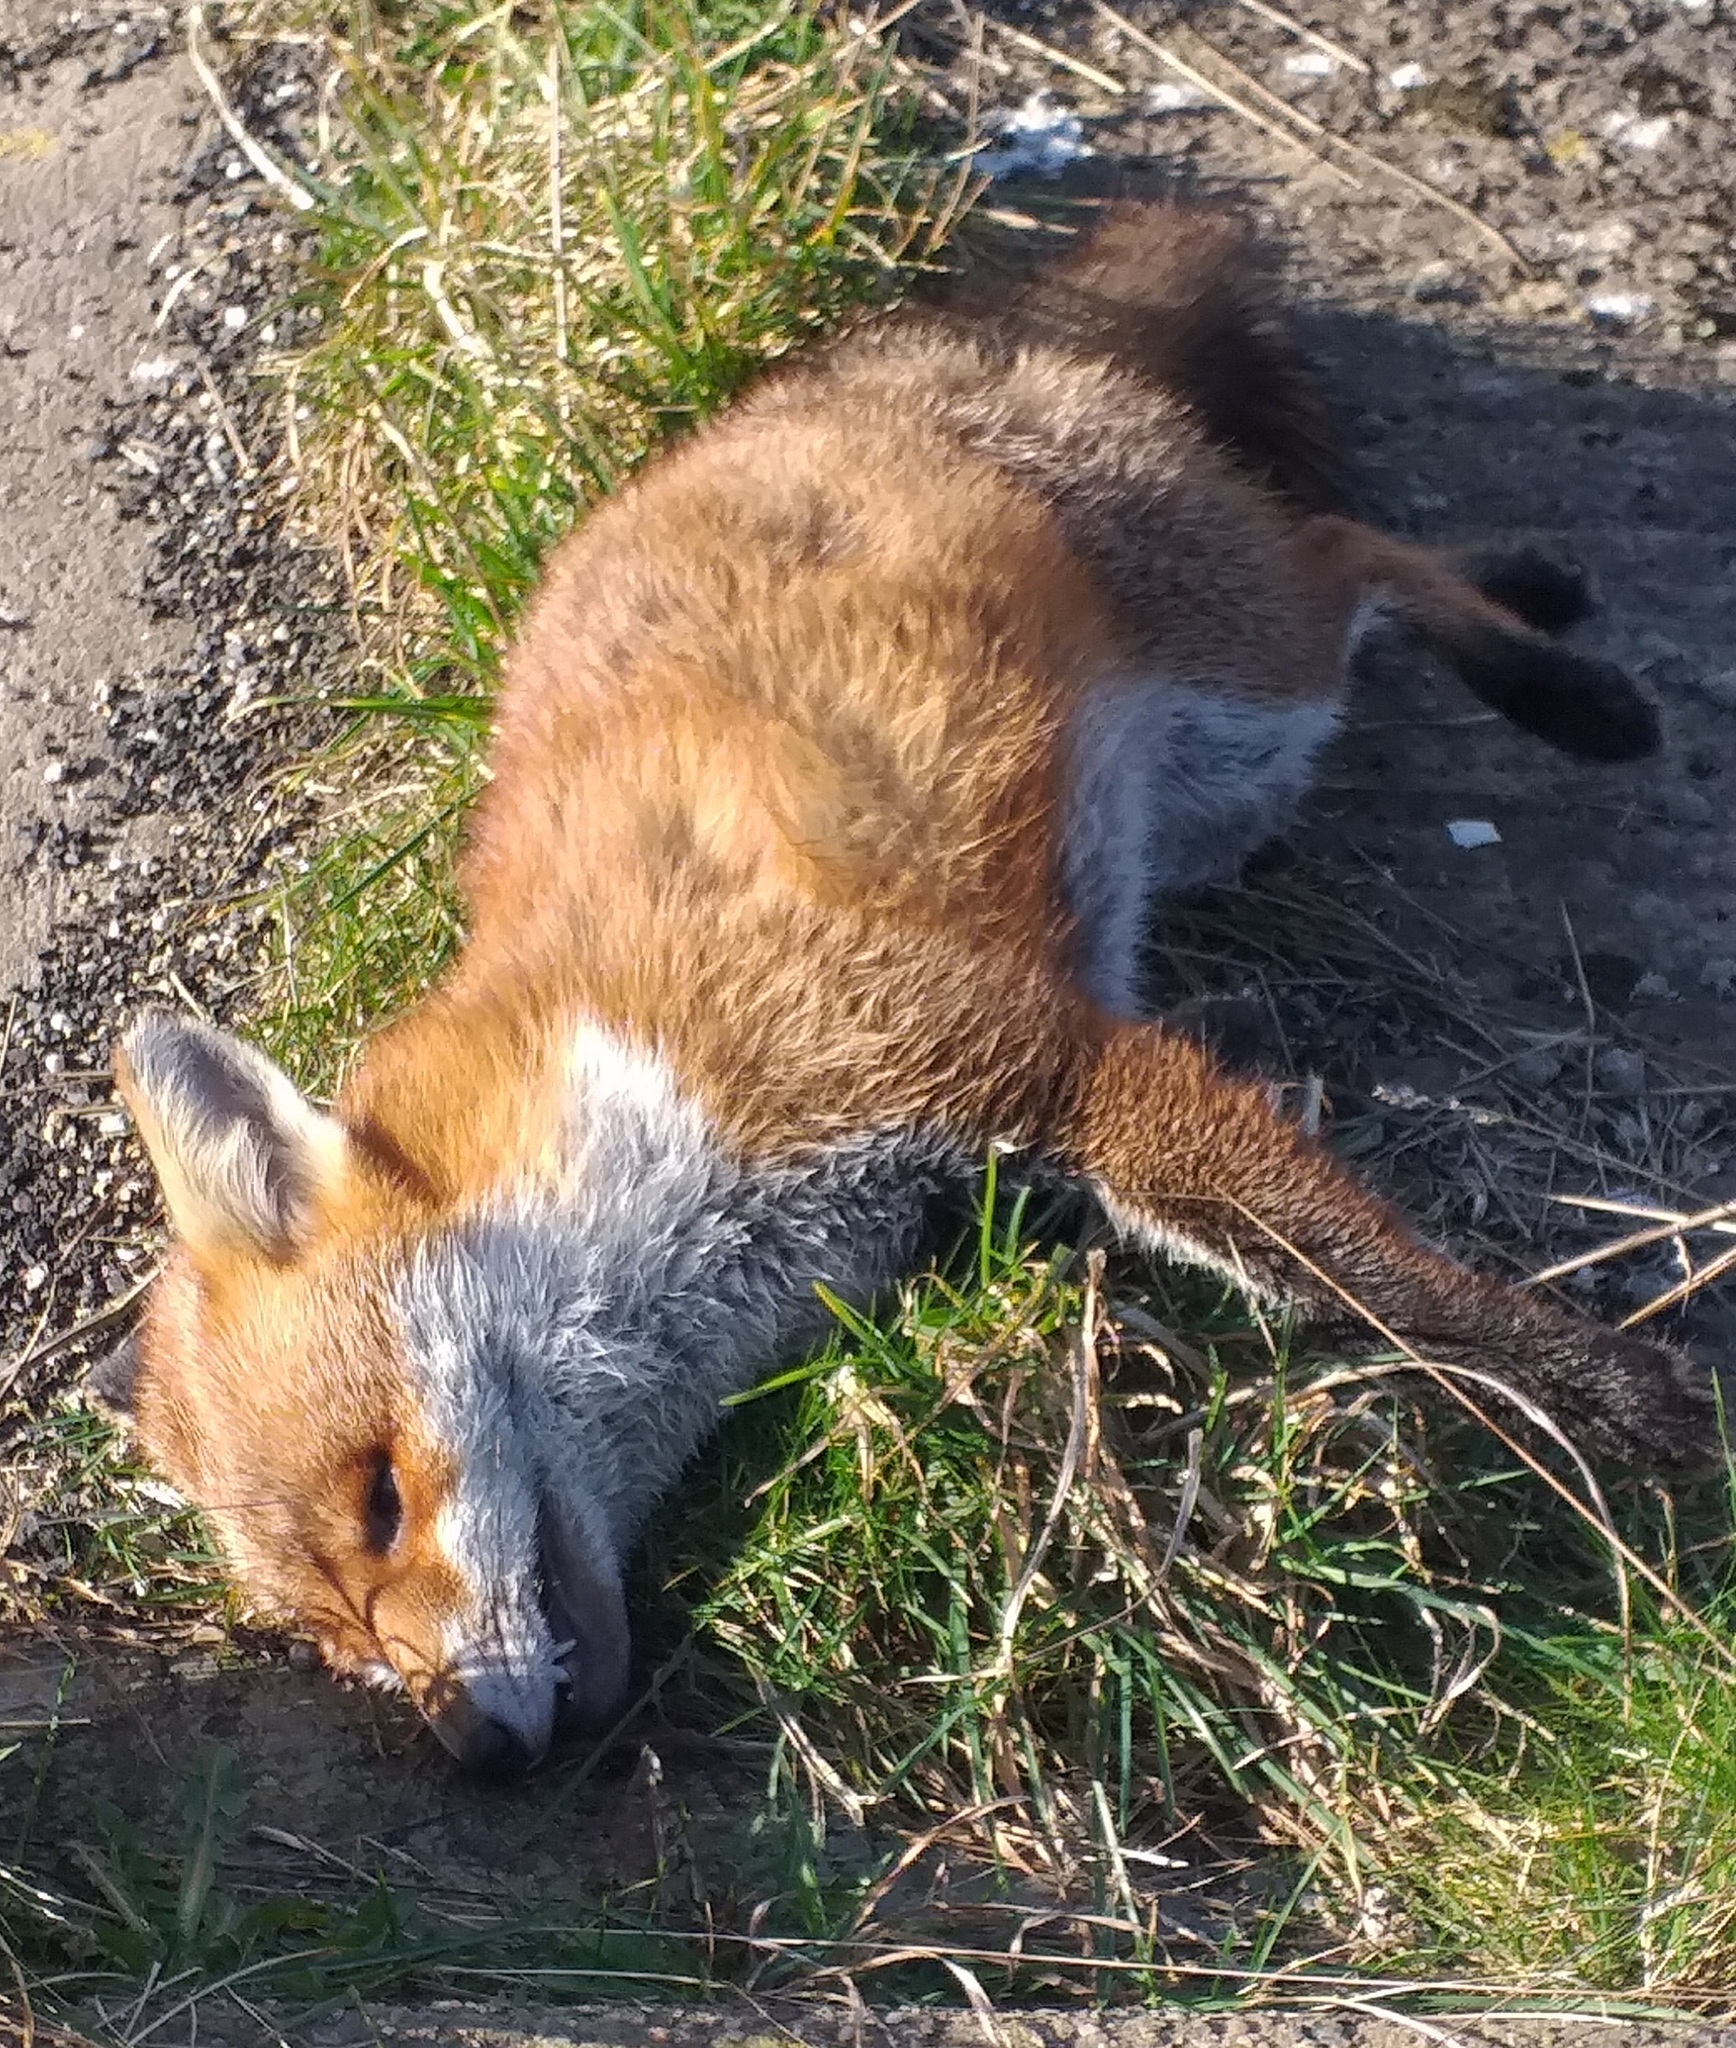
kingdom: Animalia
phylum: Chordata
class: Mammalia
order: Carnivora
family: Canidae
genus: Vulpes
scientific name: Vulpes vulpes
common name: Red fox
